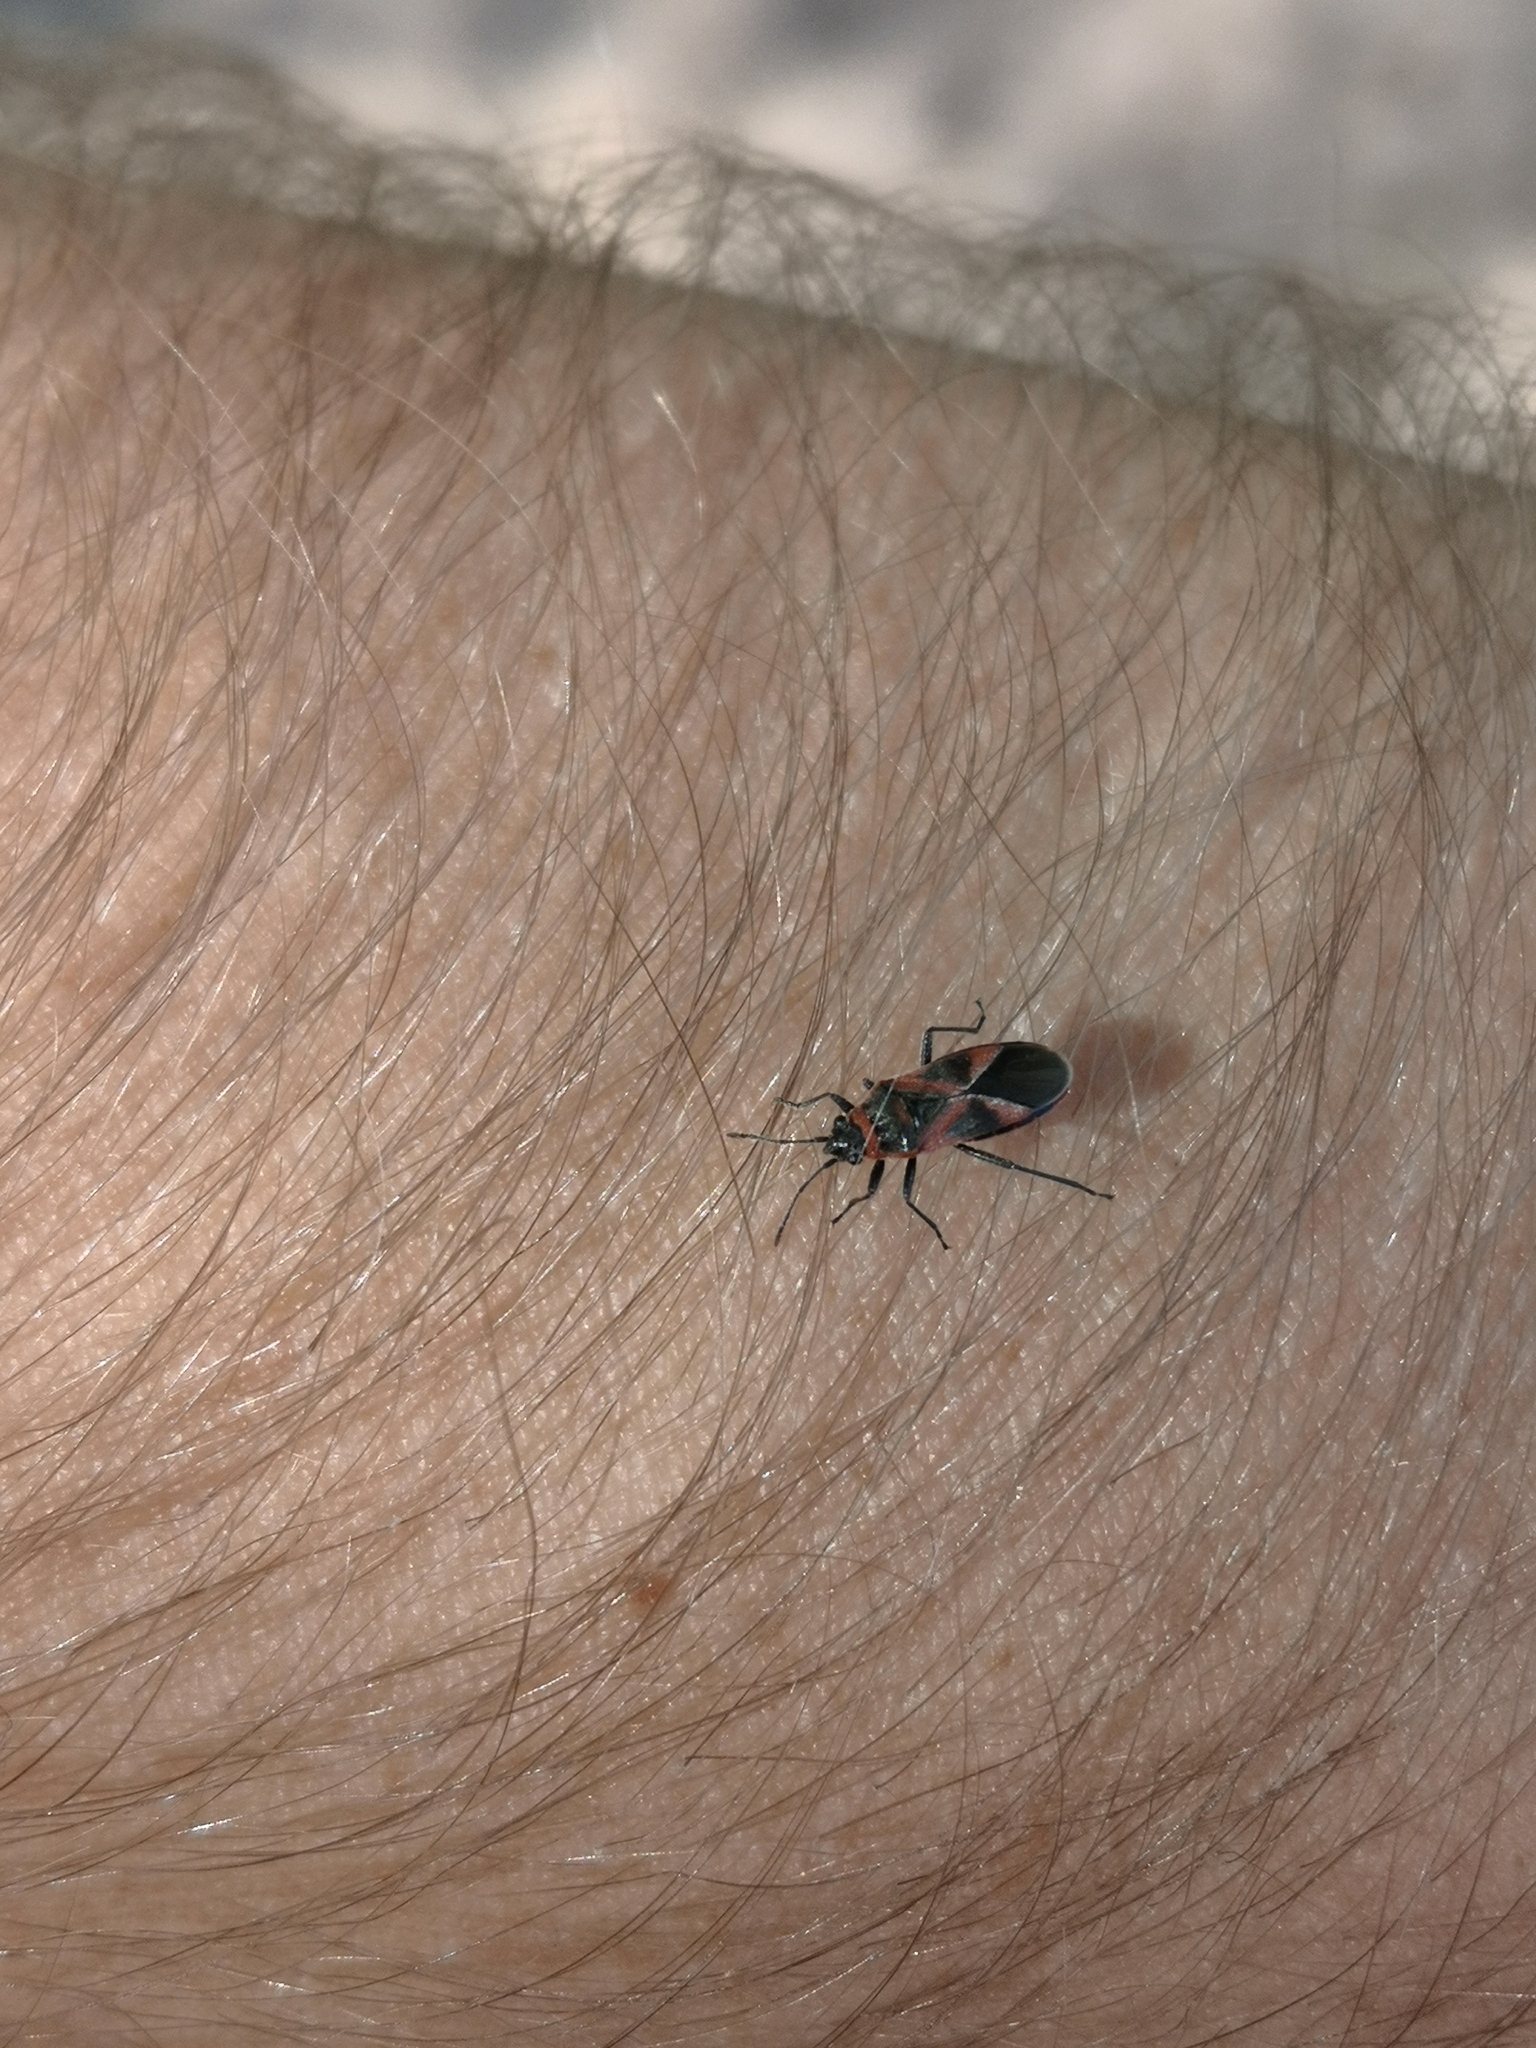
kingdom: Animalia
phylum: Arthropoda
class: Insecta
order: Hemiptera
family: Lygaeidae
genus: Arocatus
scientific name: Arocatus roeselii
